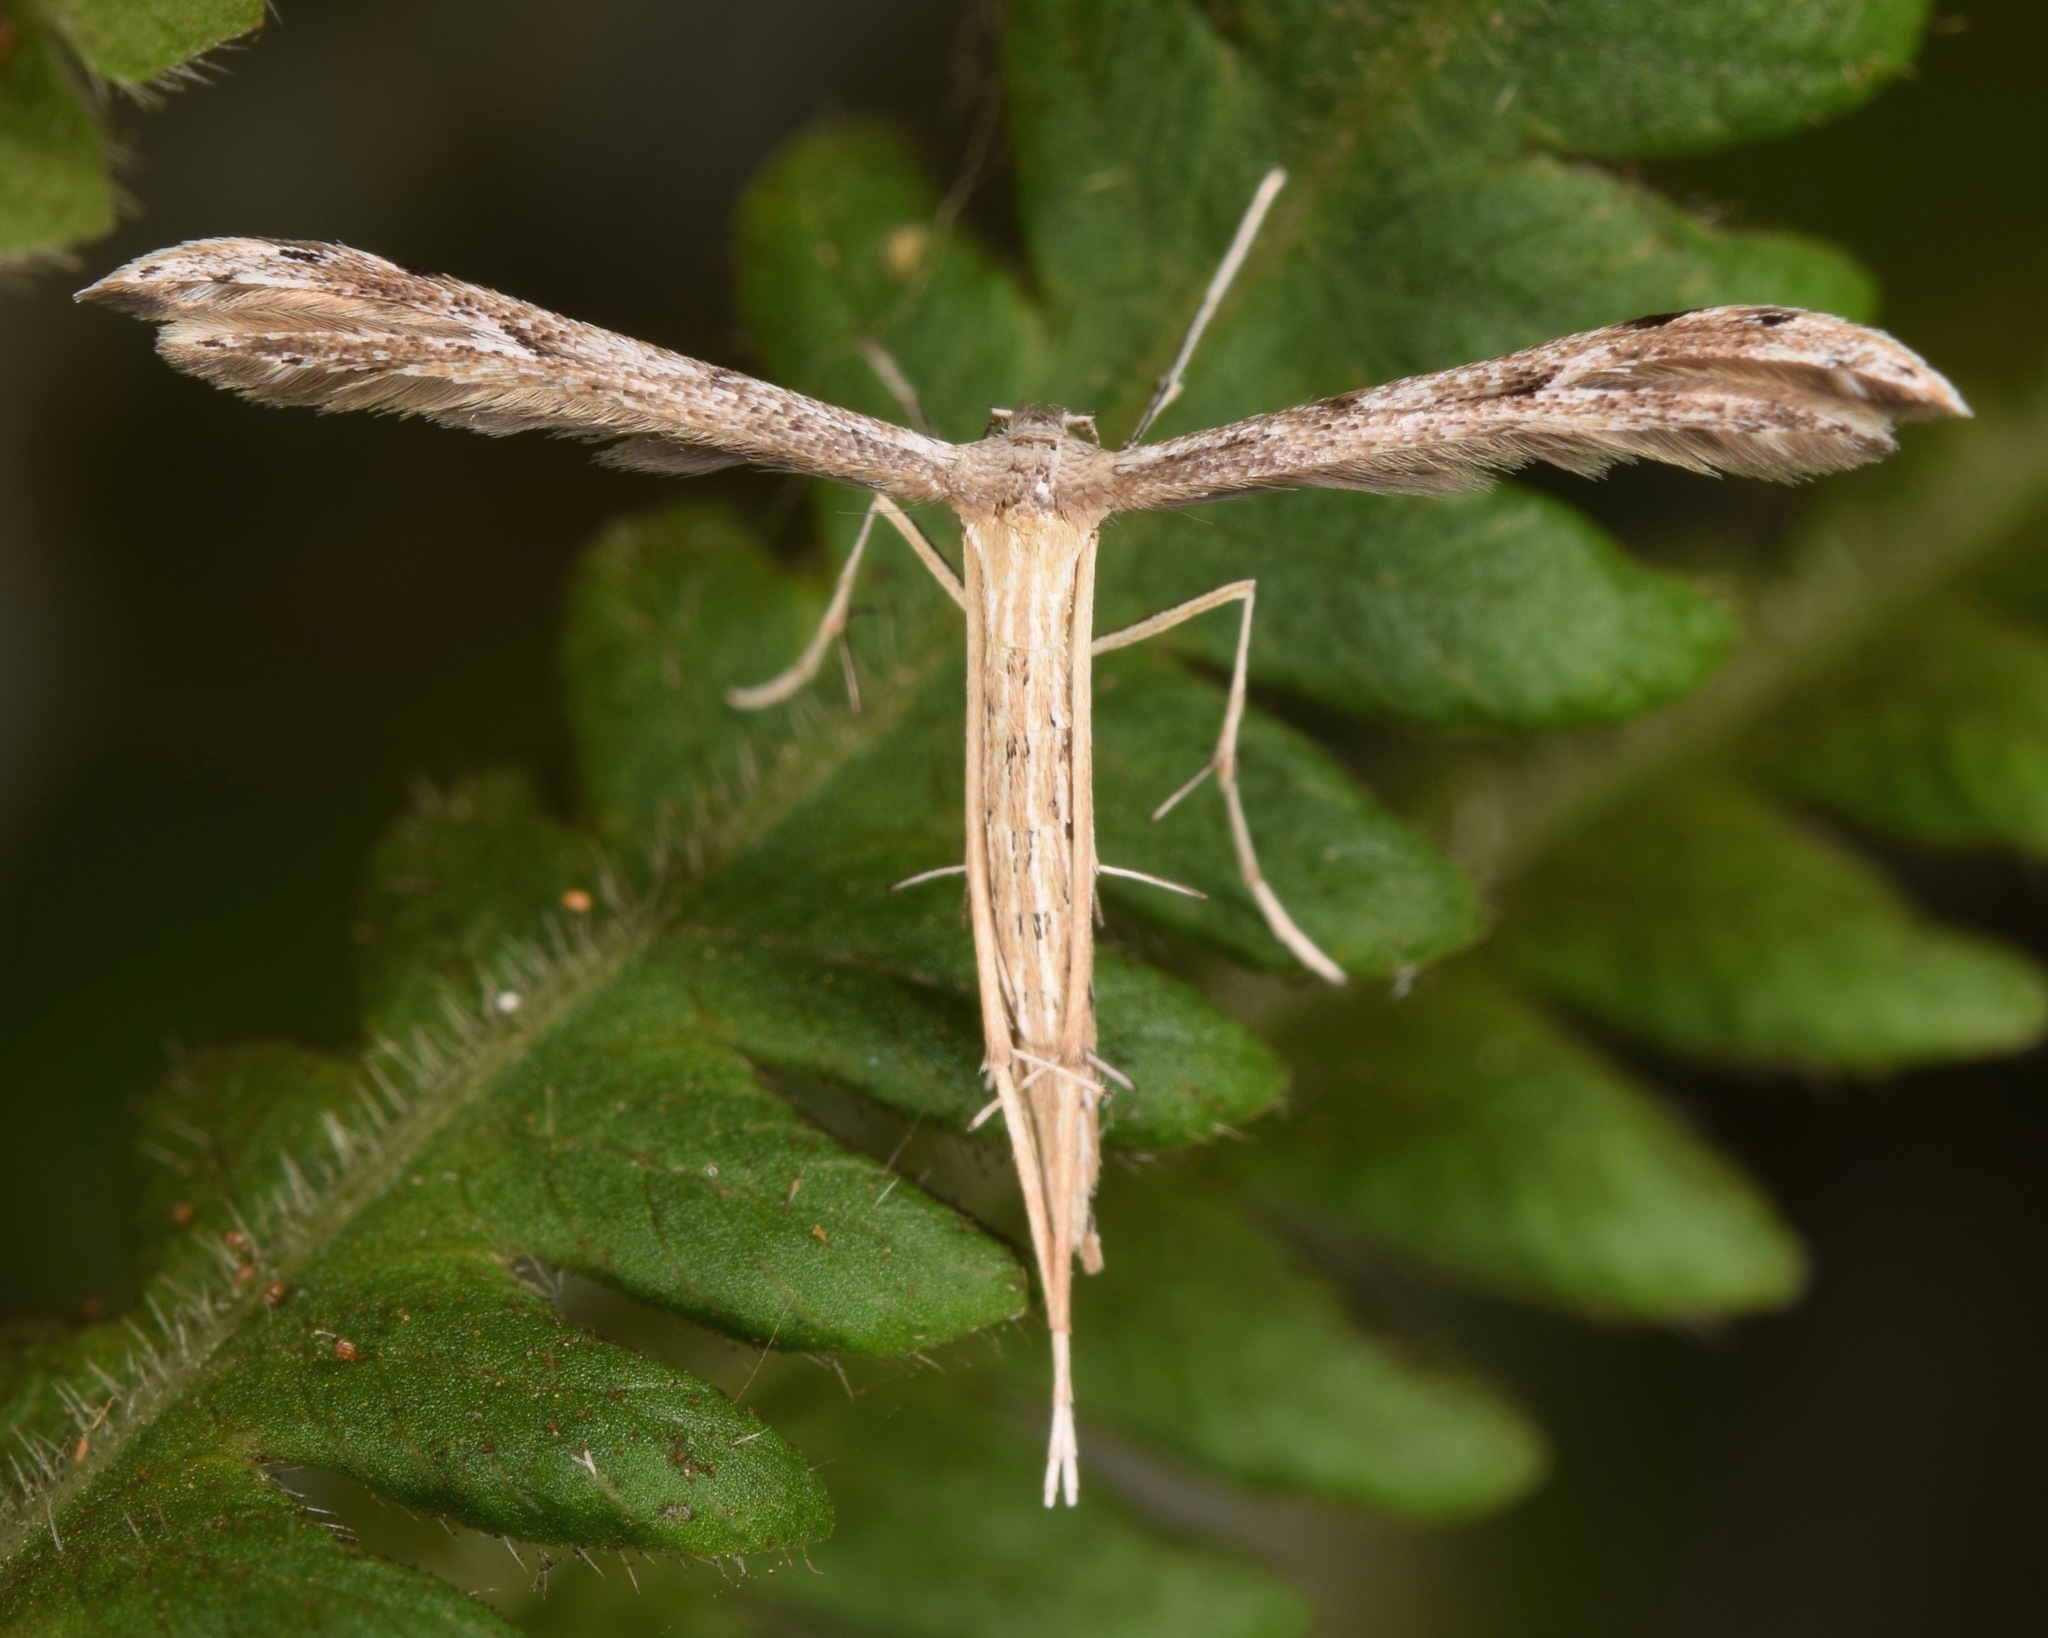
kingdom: Animalia
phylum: Arthropoda
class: Insecta
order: Lepidoptera
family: Pterophoridae
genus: Pselnophorus
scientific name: Pselnophorus belfragei
